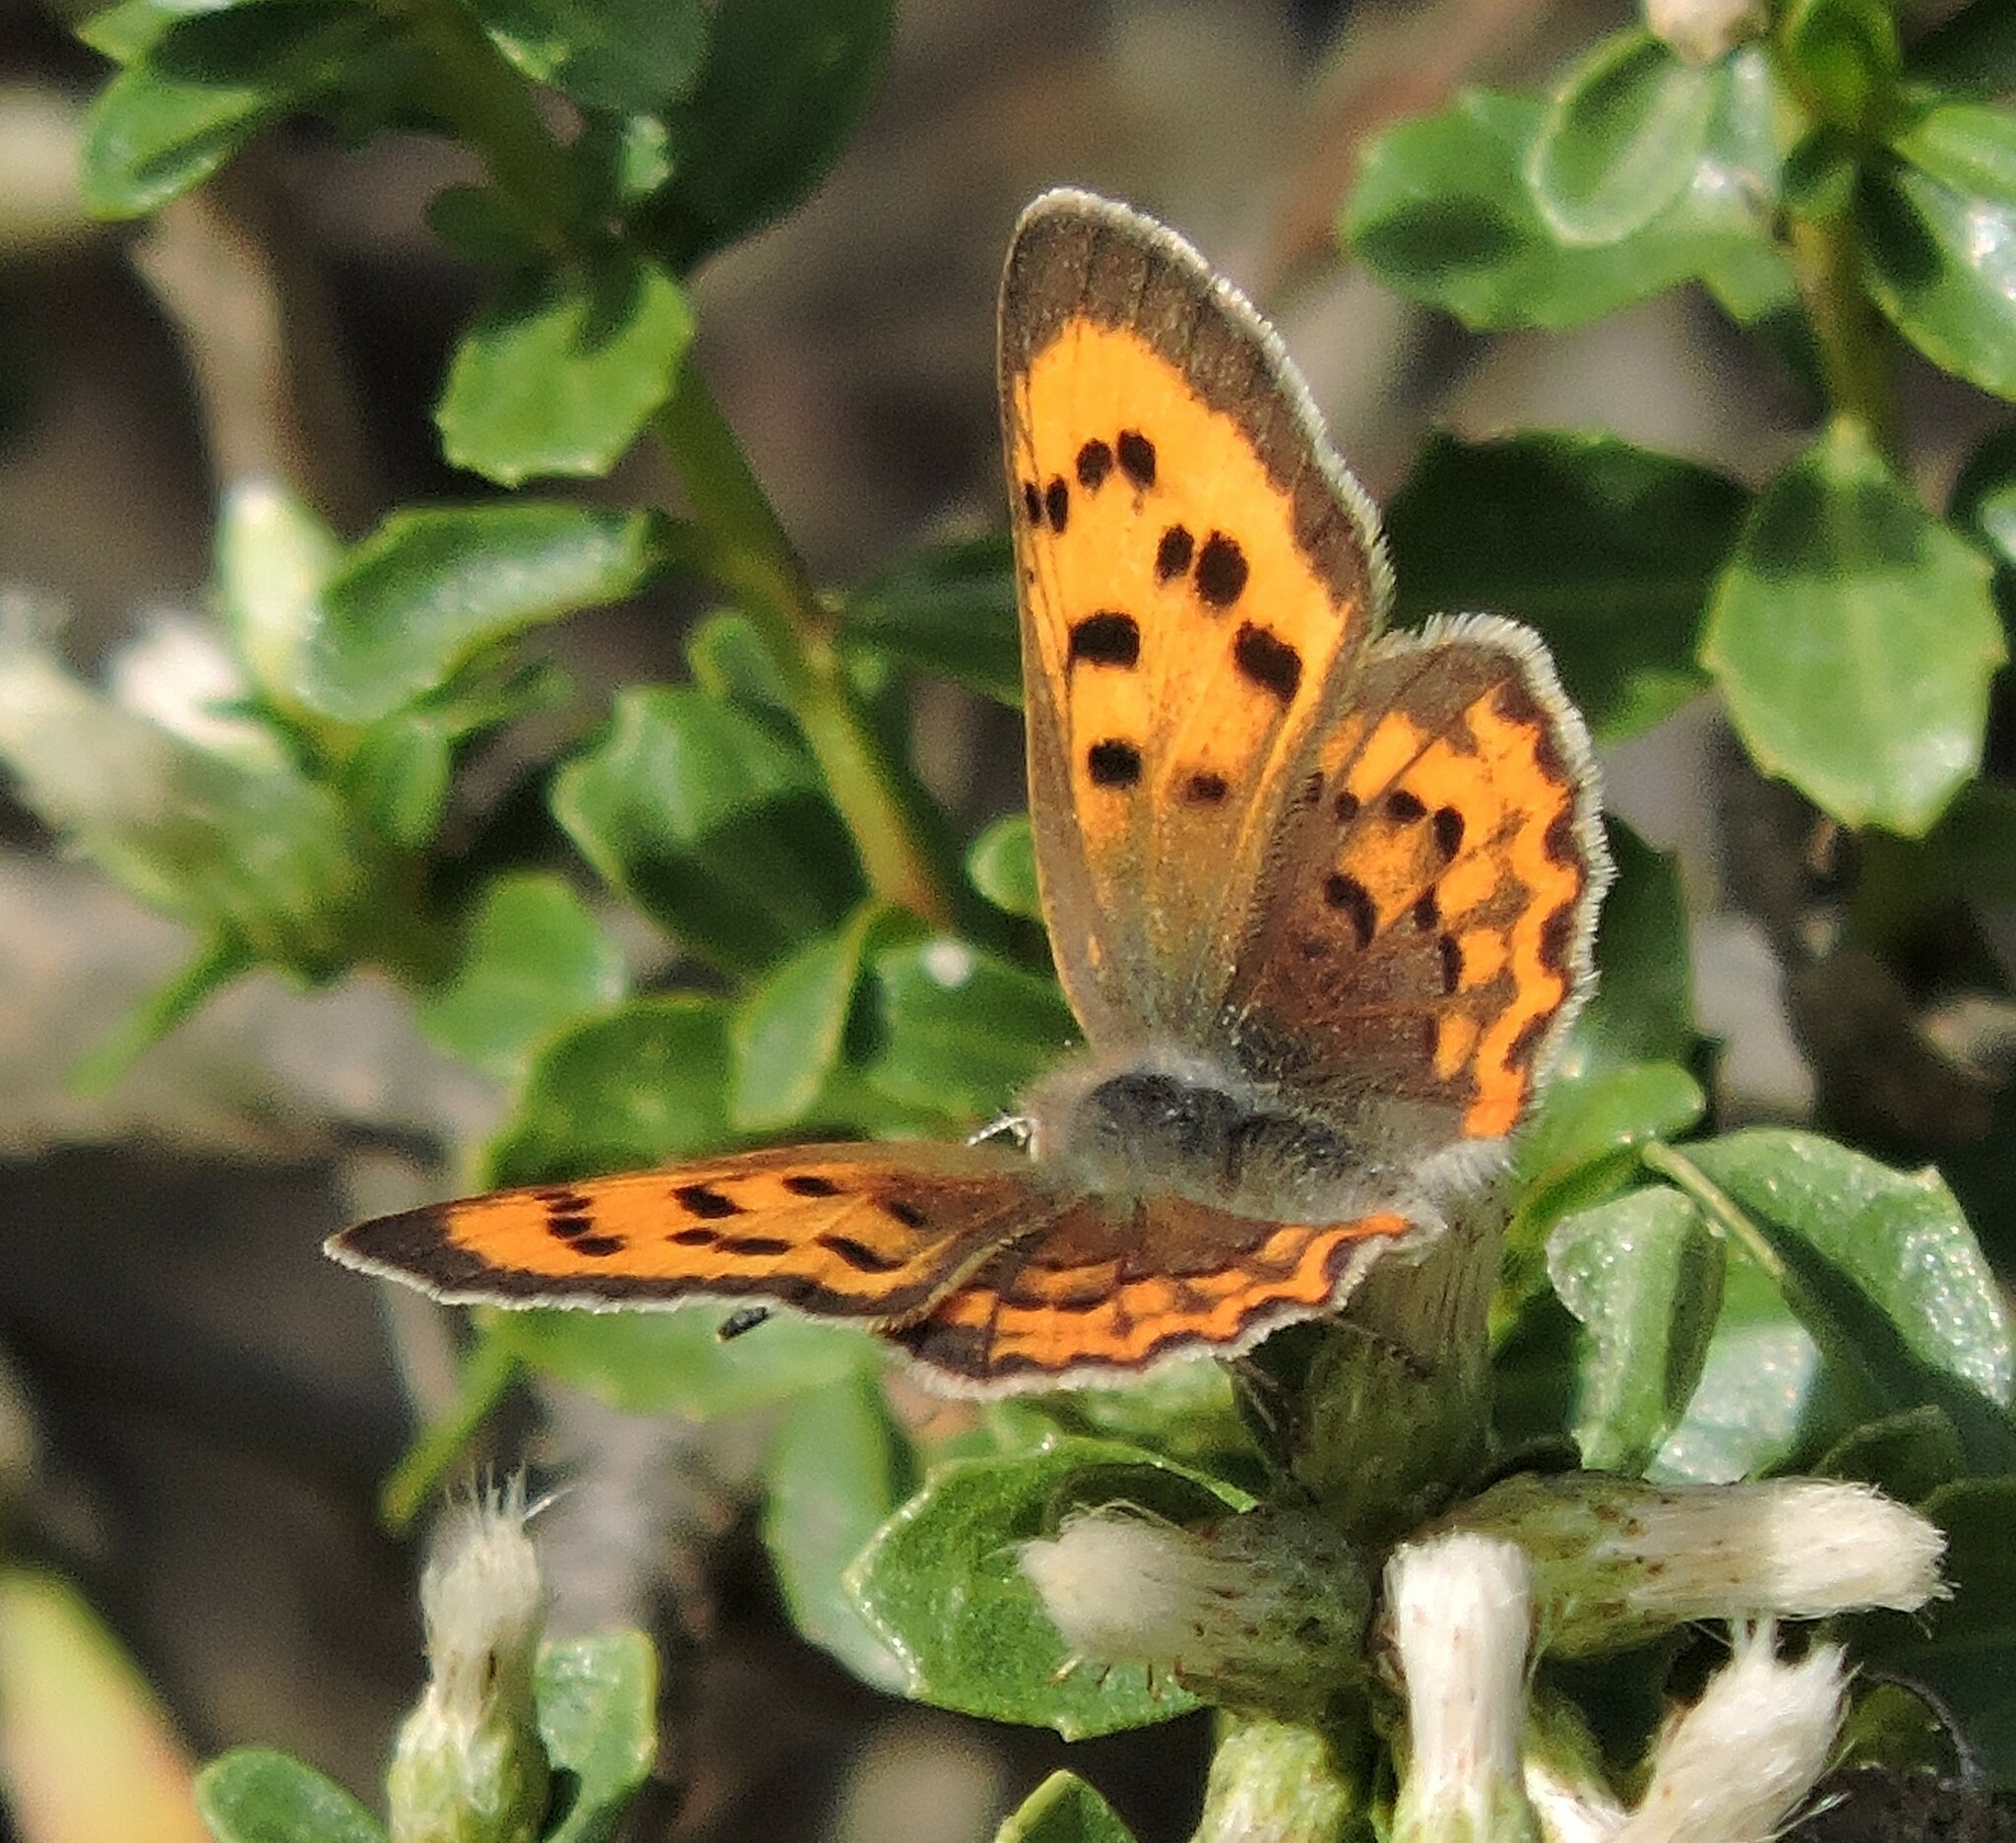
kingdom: Animalia
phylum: Arthropoda
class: Insecta
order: Lepidoptera
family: Lycaenidae
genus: Tharsalea
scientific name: Tharsalea helloides
